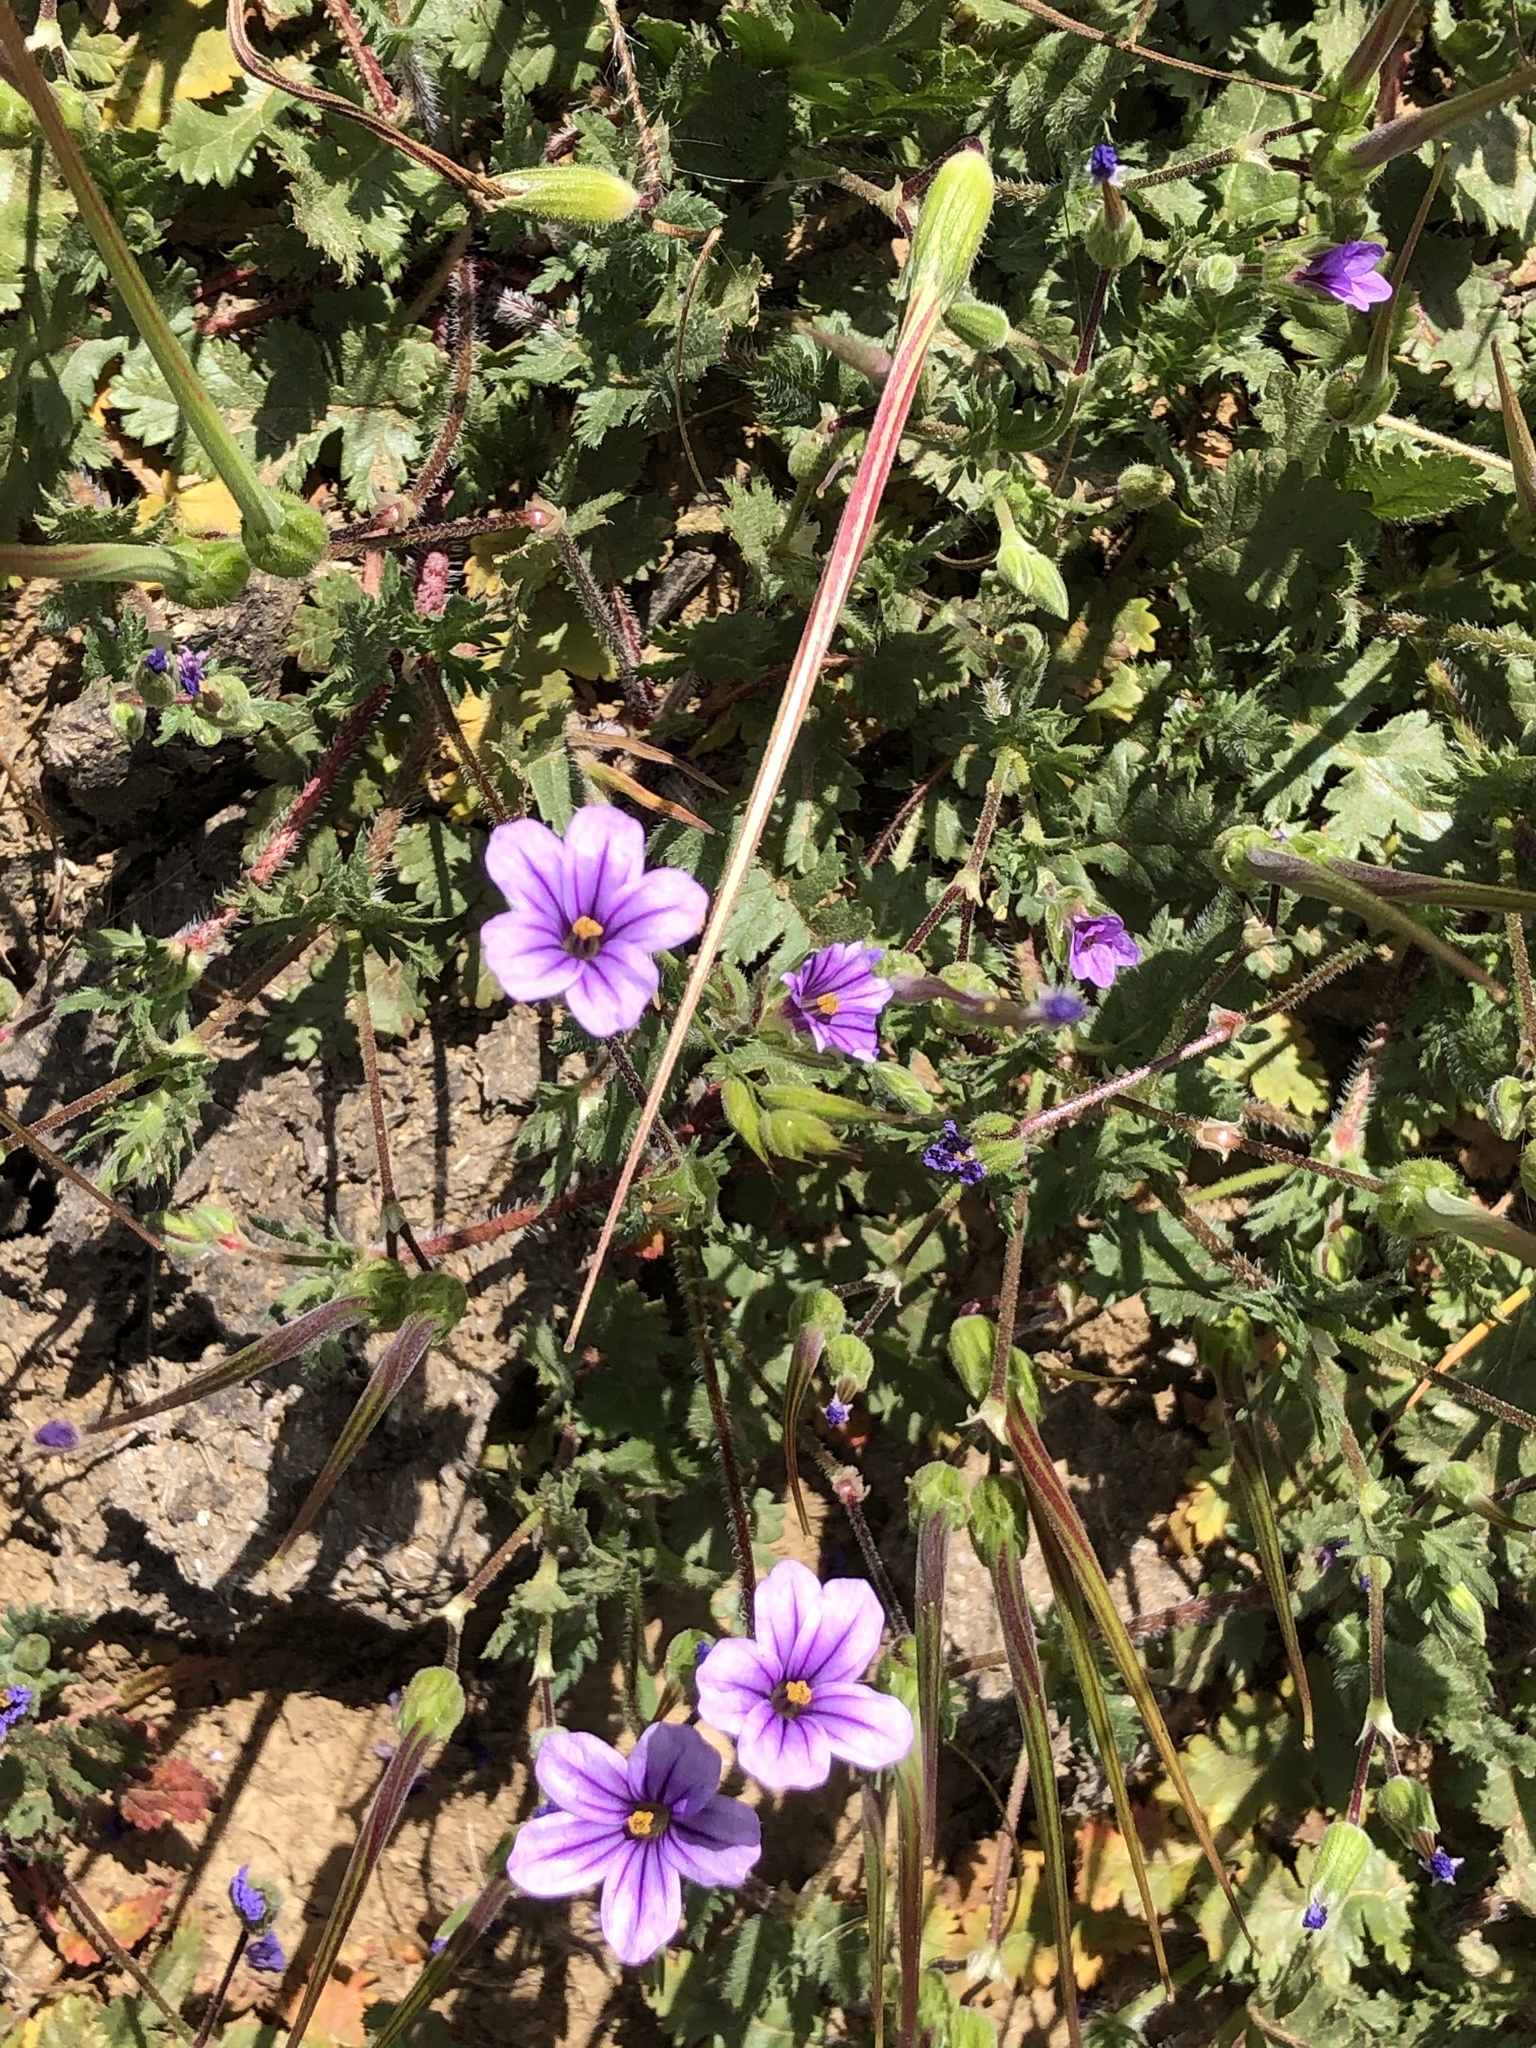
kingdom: Plantae
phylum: Tracheophyta
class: Magnoliopsida
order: Geraniales
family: Geraniaceae
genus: Erodium
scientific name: Erodium botrys
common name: Mediterranean stork's-bill
